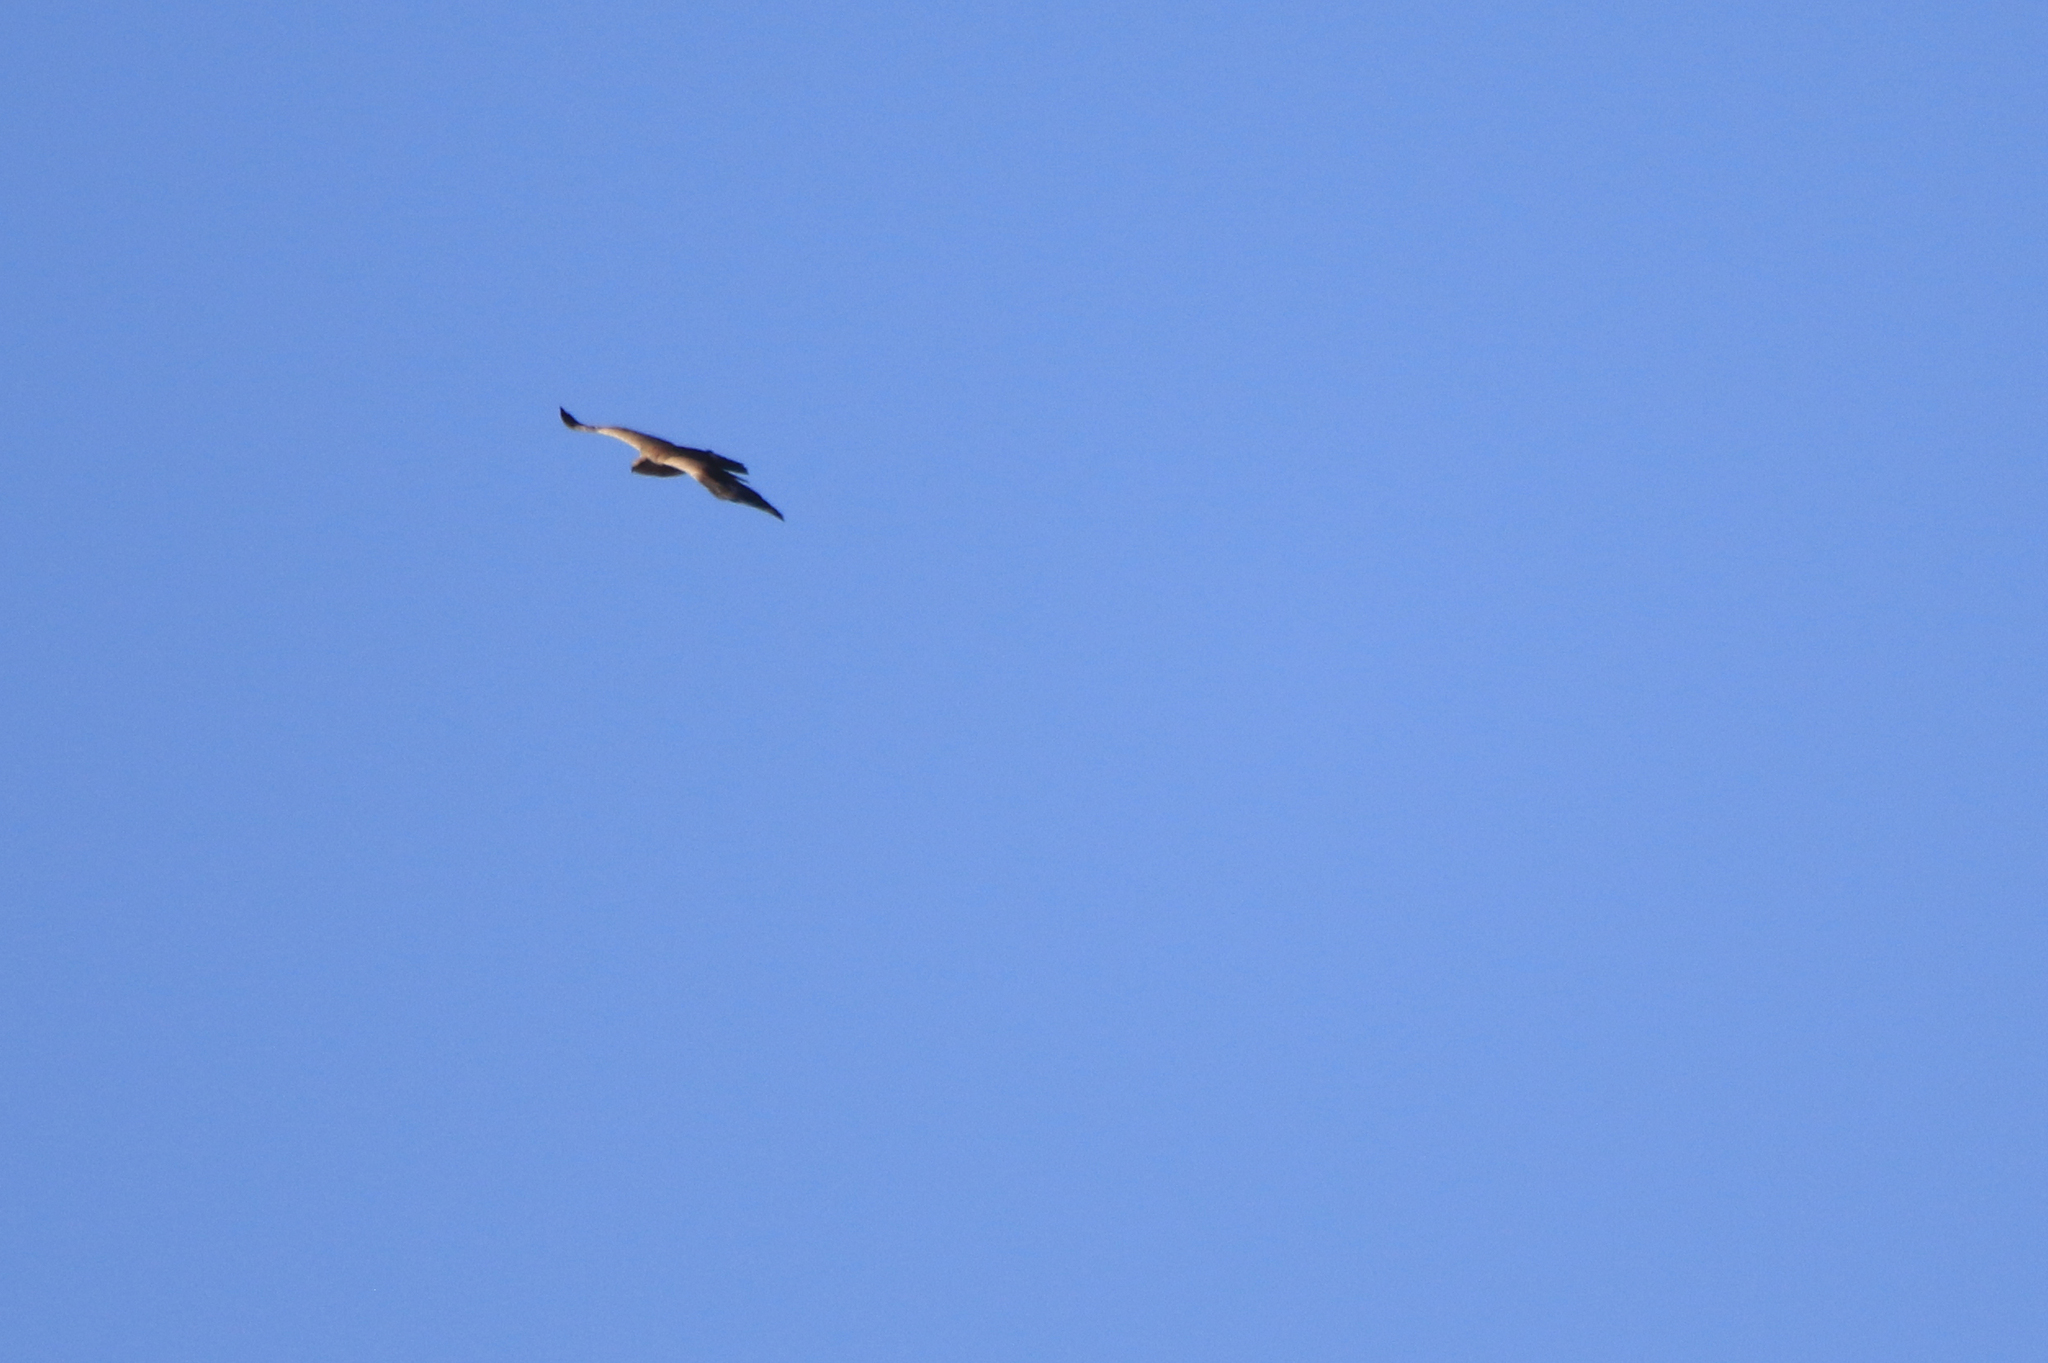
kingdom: Animalia
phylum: Chordata
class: Aves
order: Accipitriformes
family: Accipitridae
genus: Aquila
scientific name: Aquila nipalensis
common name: Steppe eagle
